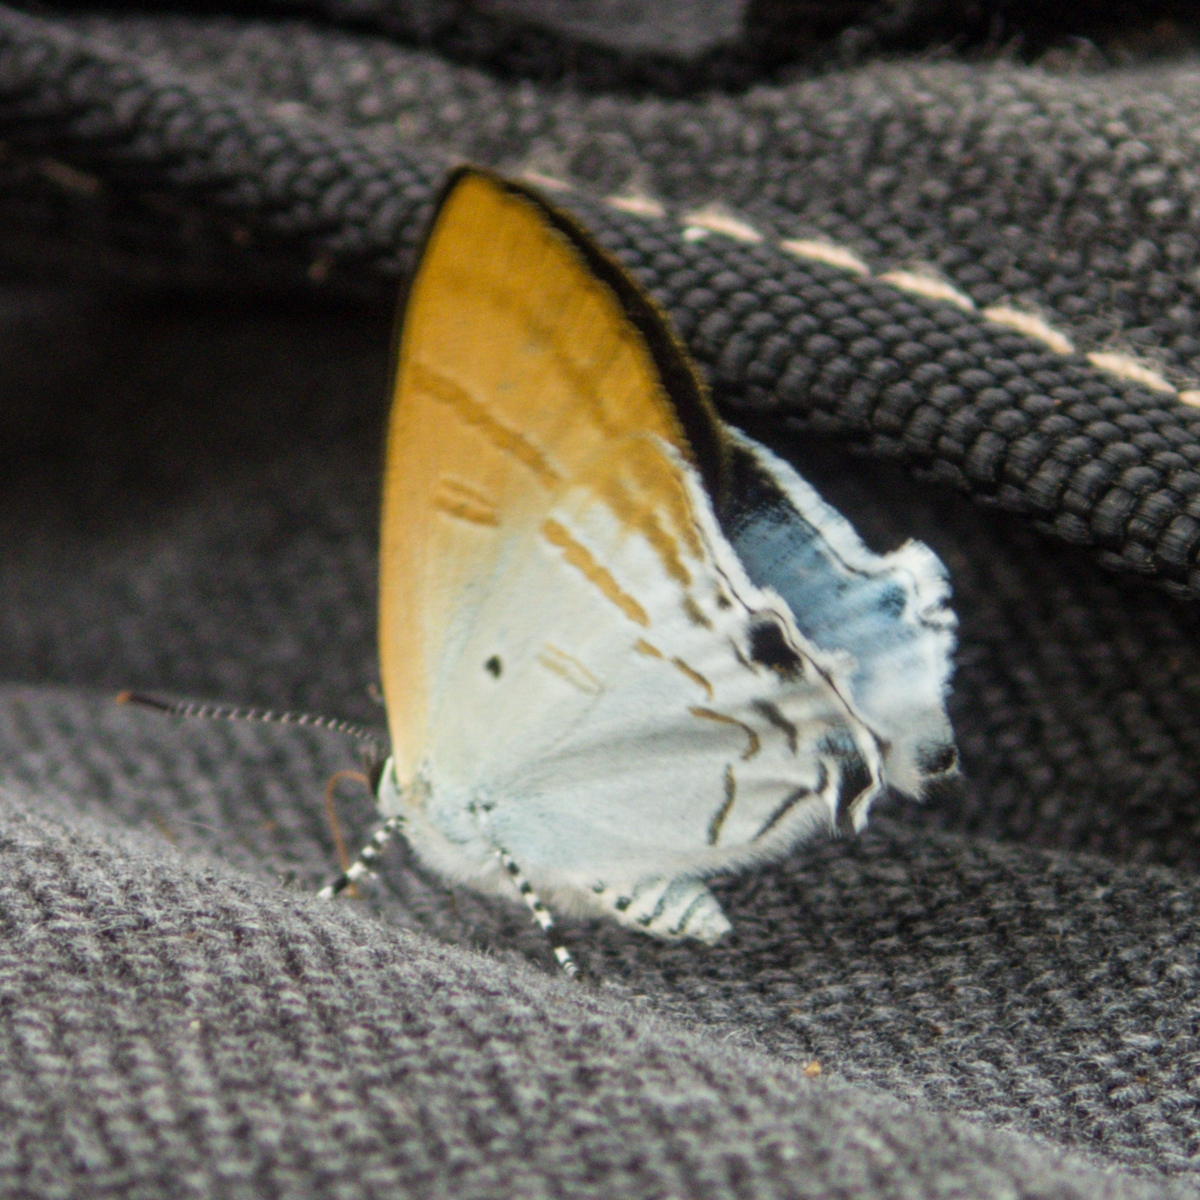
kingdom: Animalia
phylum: Arthropoda
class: Insecta
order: Lepidoptera
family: Lycaenidae
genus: Zeltus
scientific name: Zeltus amasa
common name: Fluffy tit
